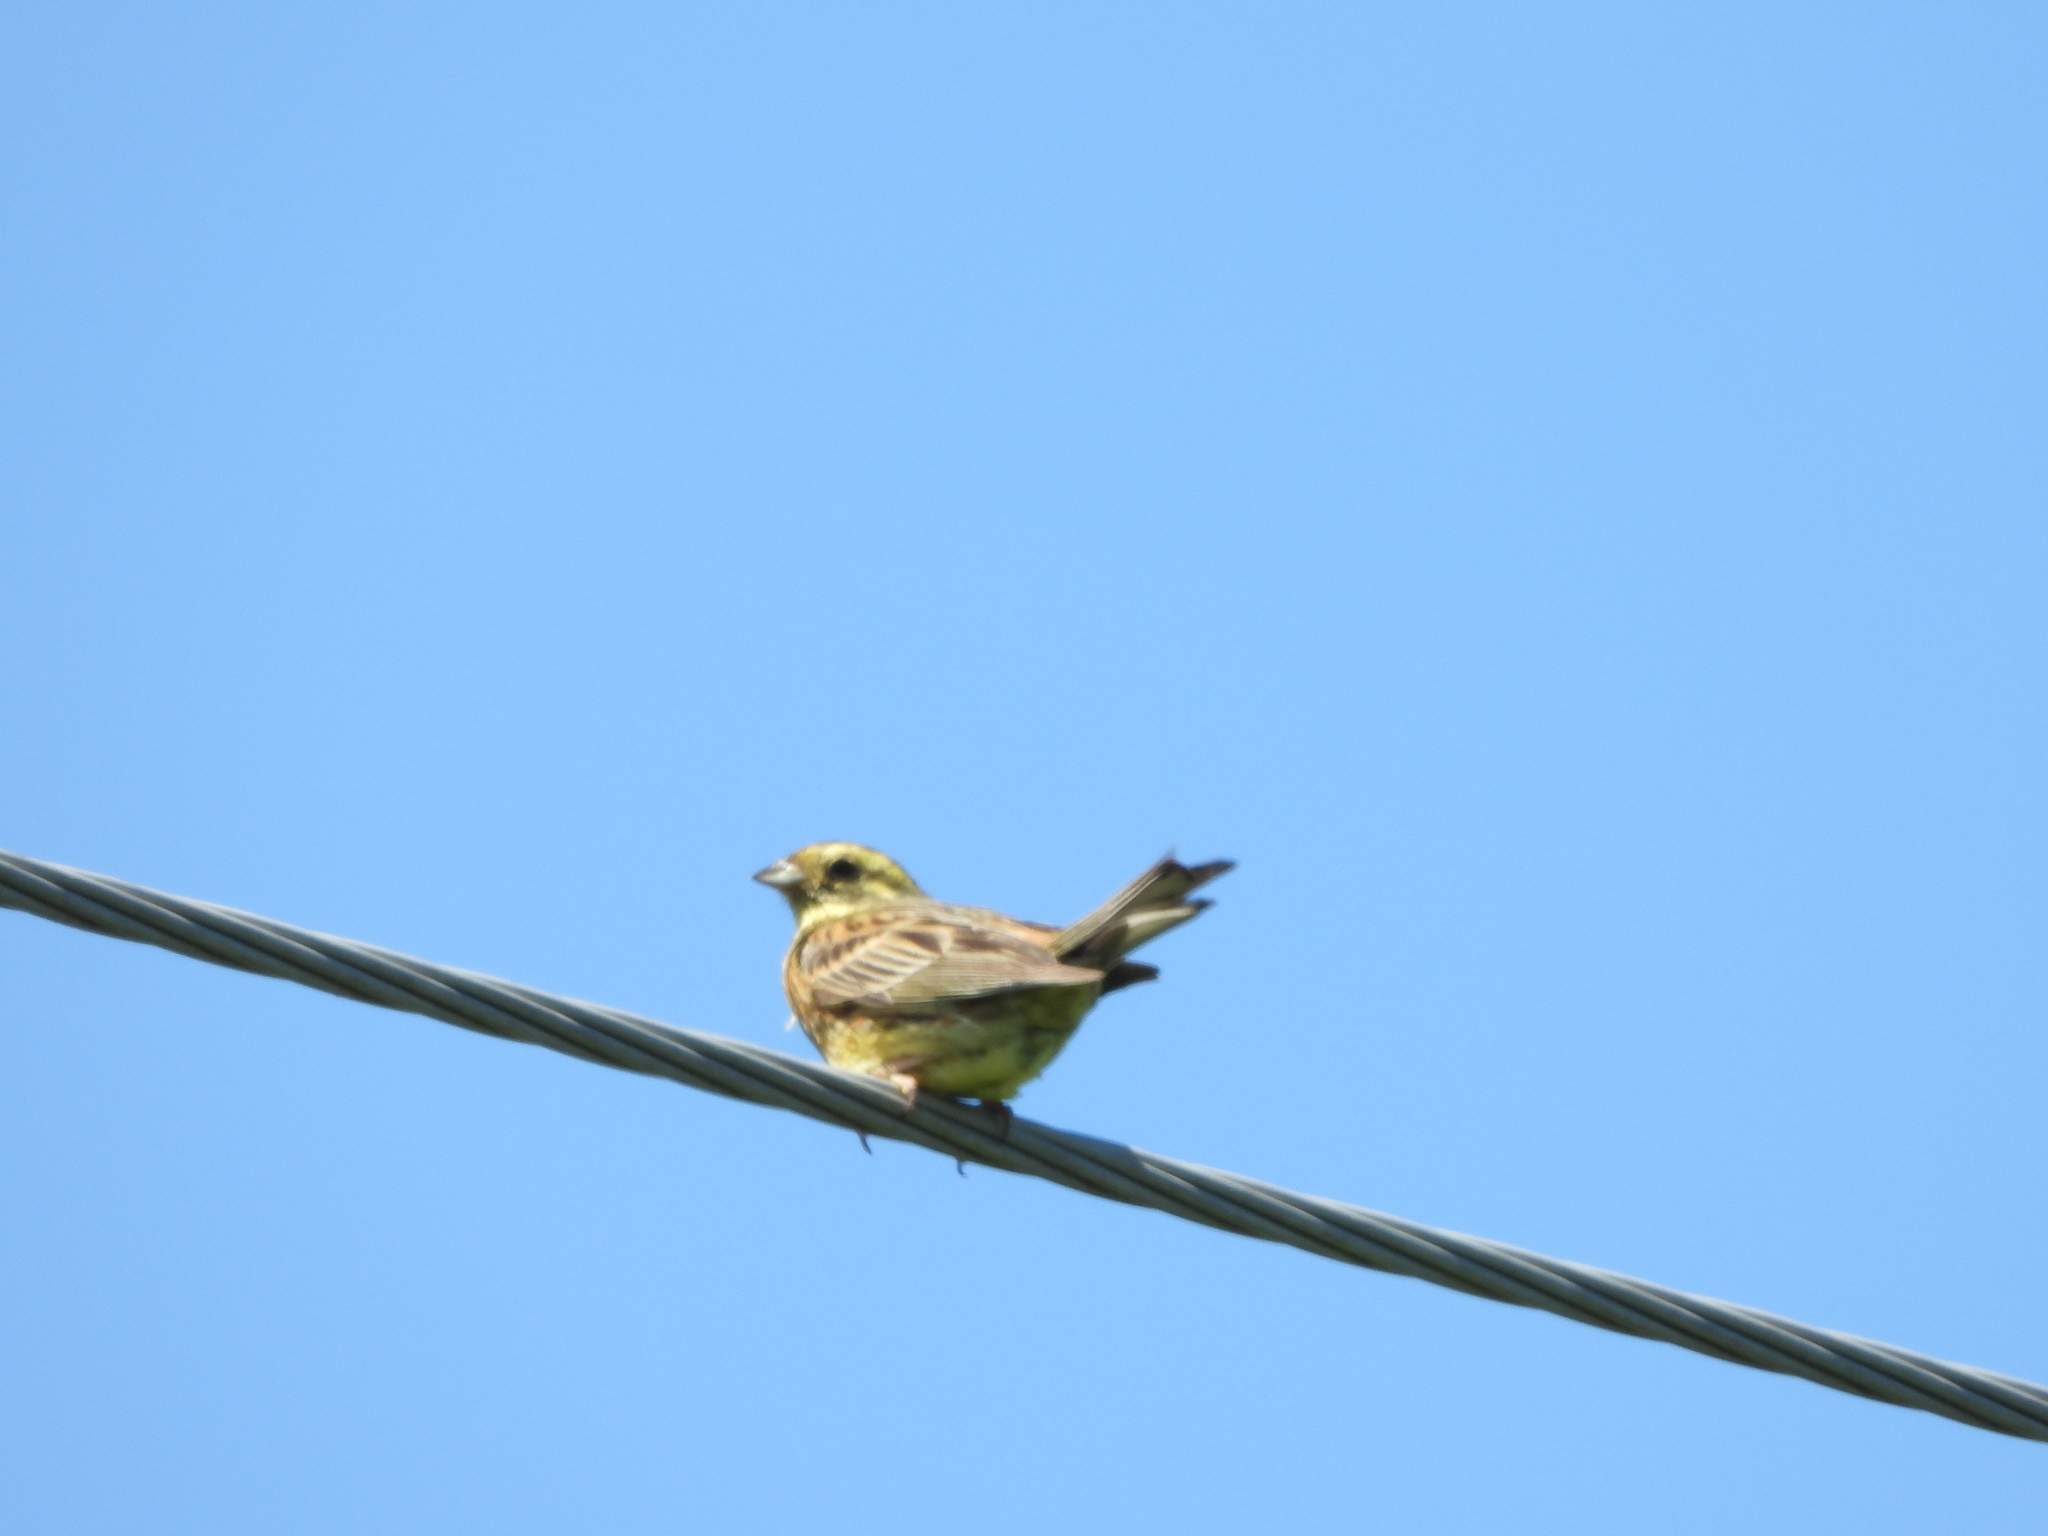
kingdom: Animalia
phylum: Chordata
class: Aves
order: Passeriformes
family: Emberizidae
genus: Emberiza
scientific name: Emberiza citrinella
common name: Yellowhammer
